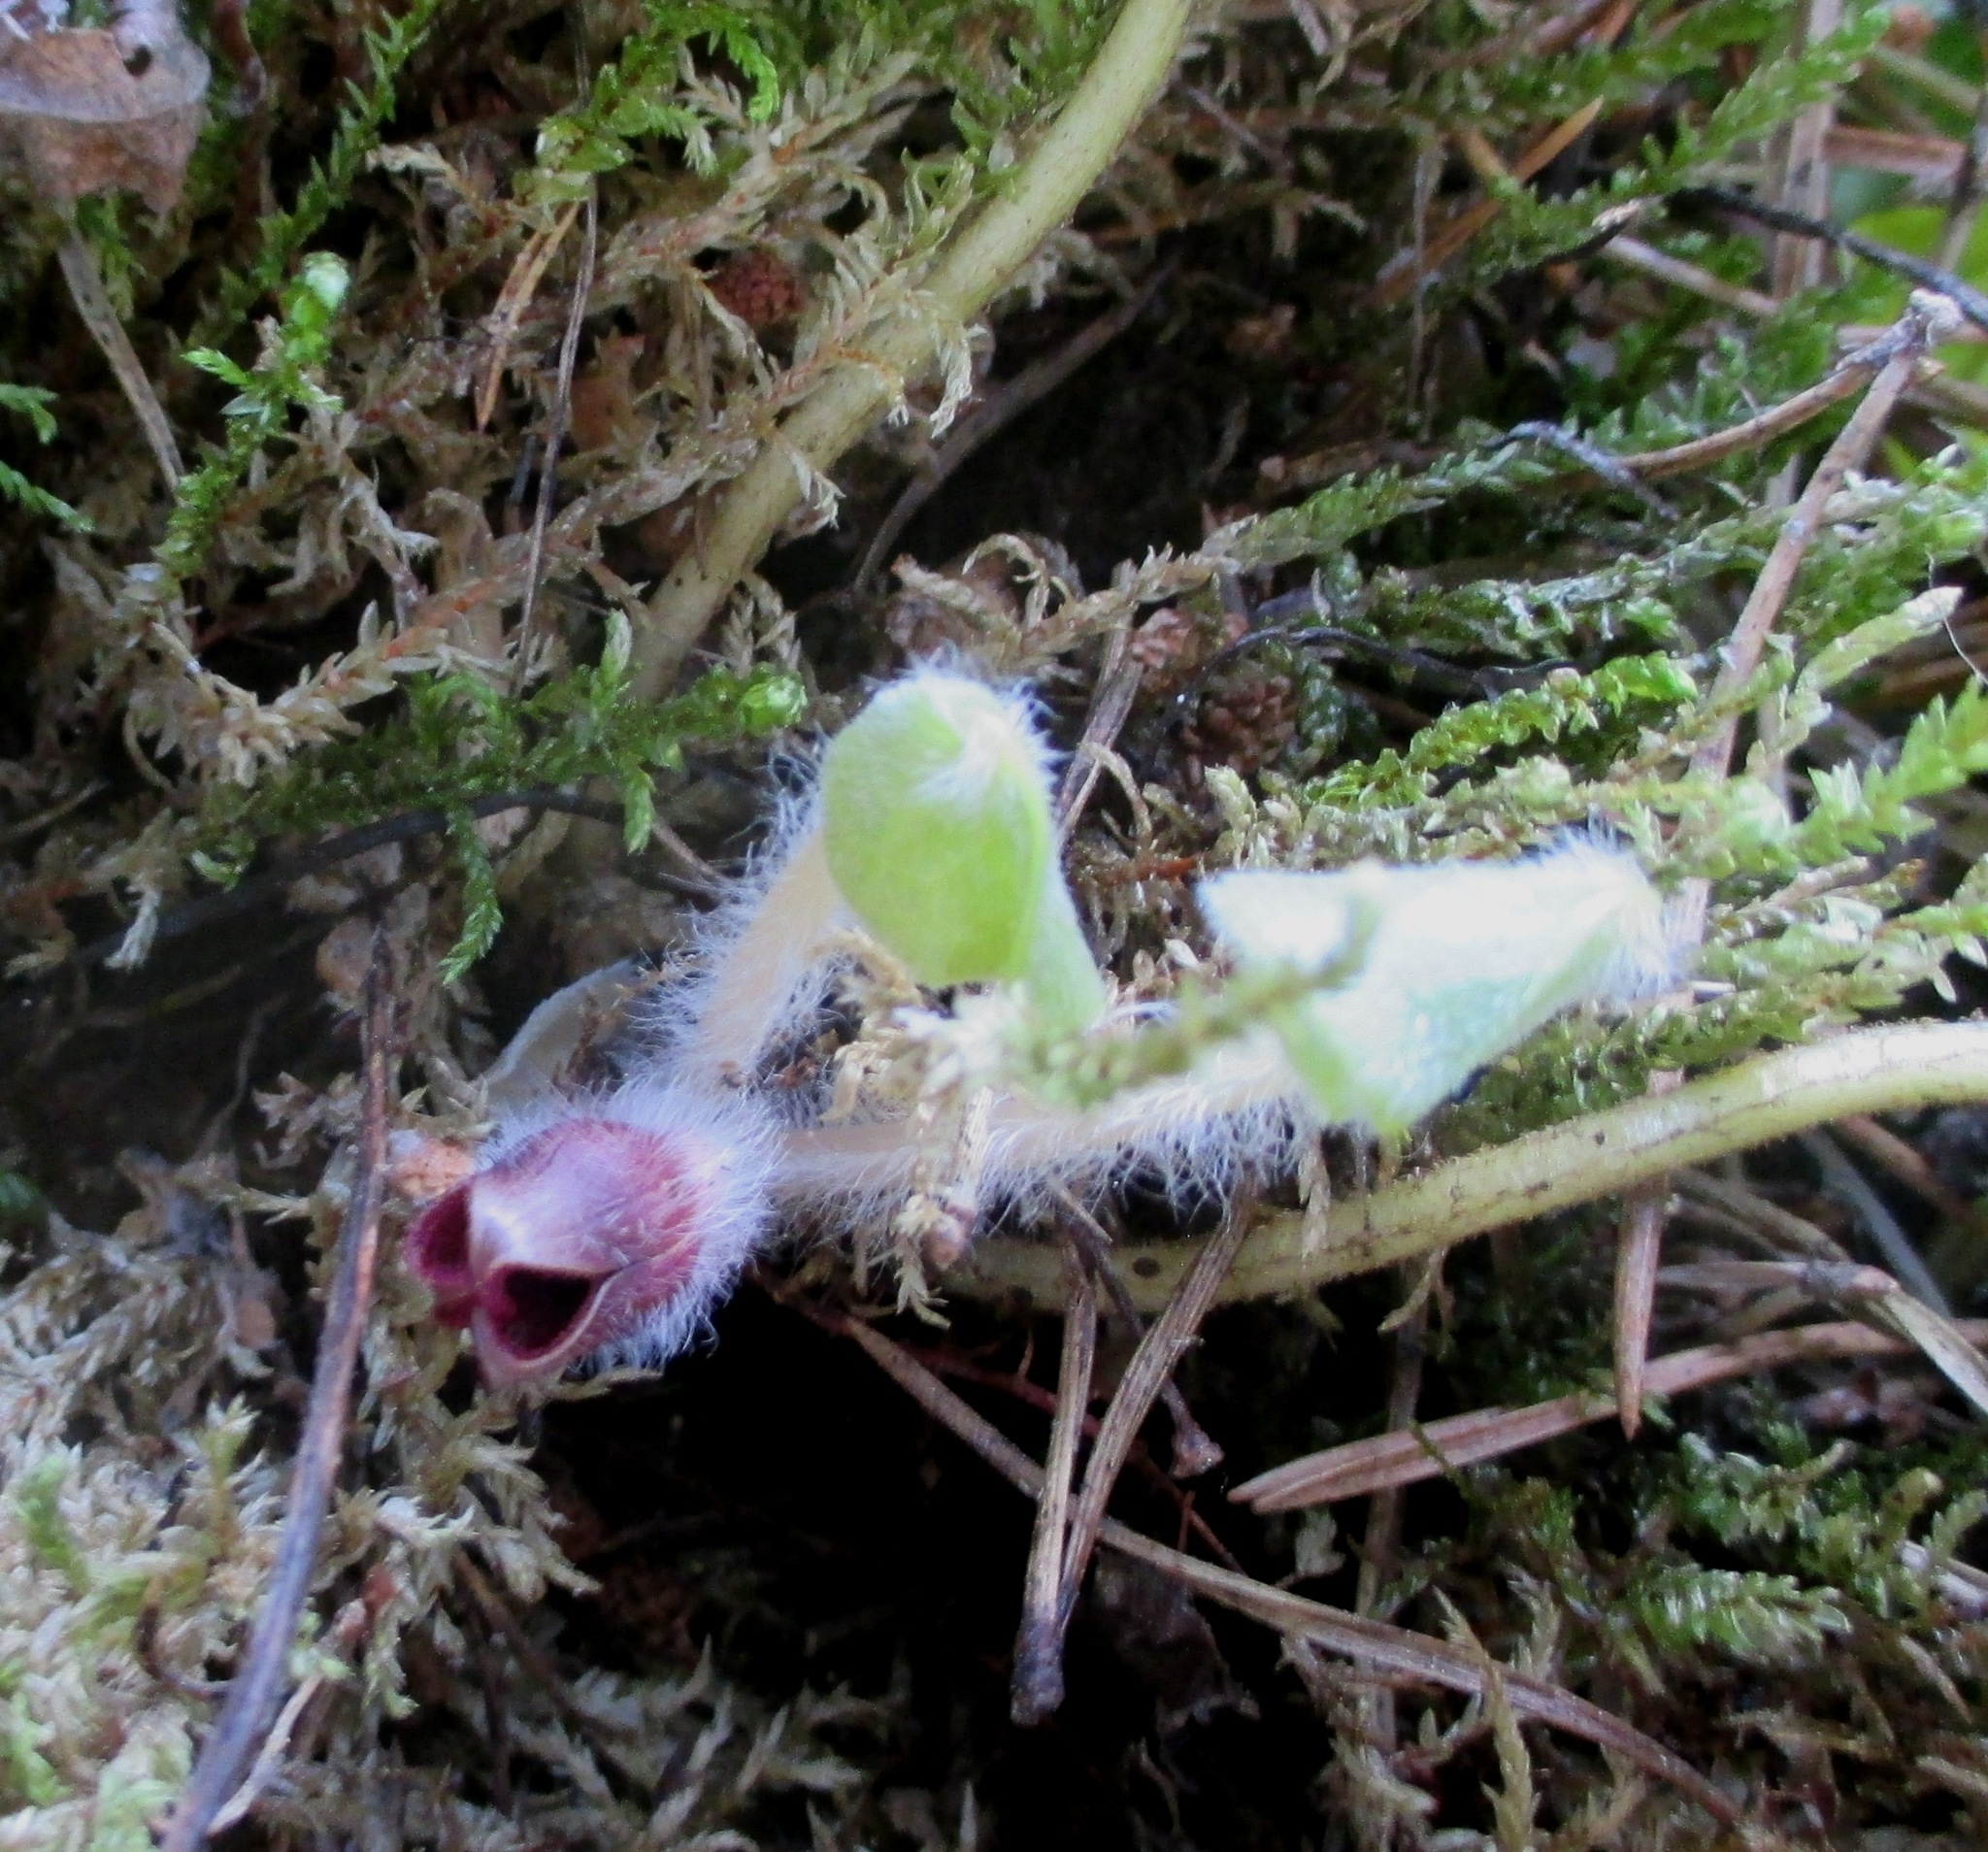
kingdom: Plantae
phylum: Tracheophyta
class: Magnoliopsida
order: Piperales
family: Aristolochiaceae
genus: Asarum
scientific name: Asarum europaeum
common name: Asarabacca
